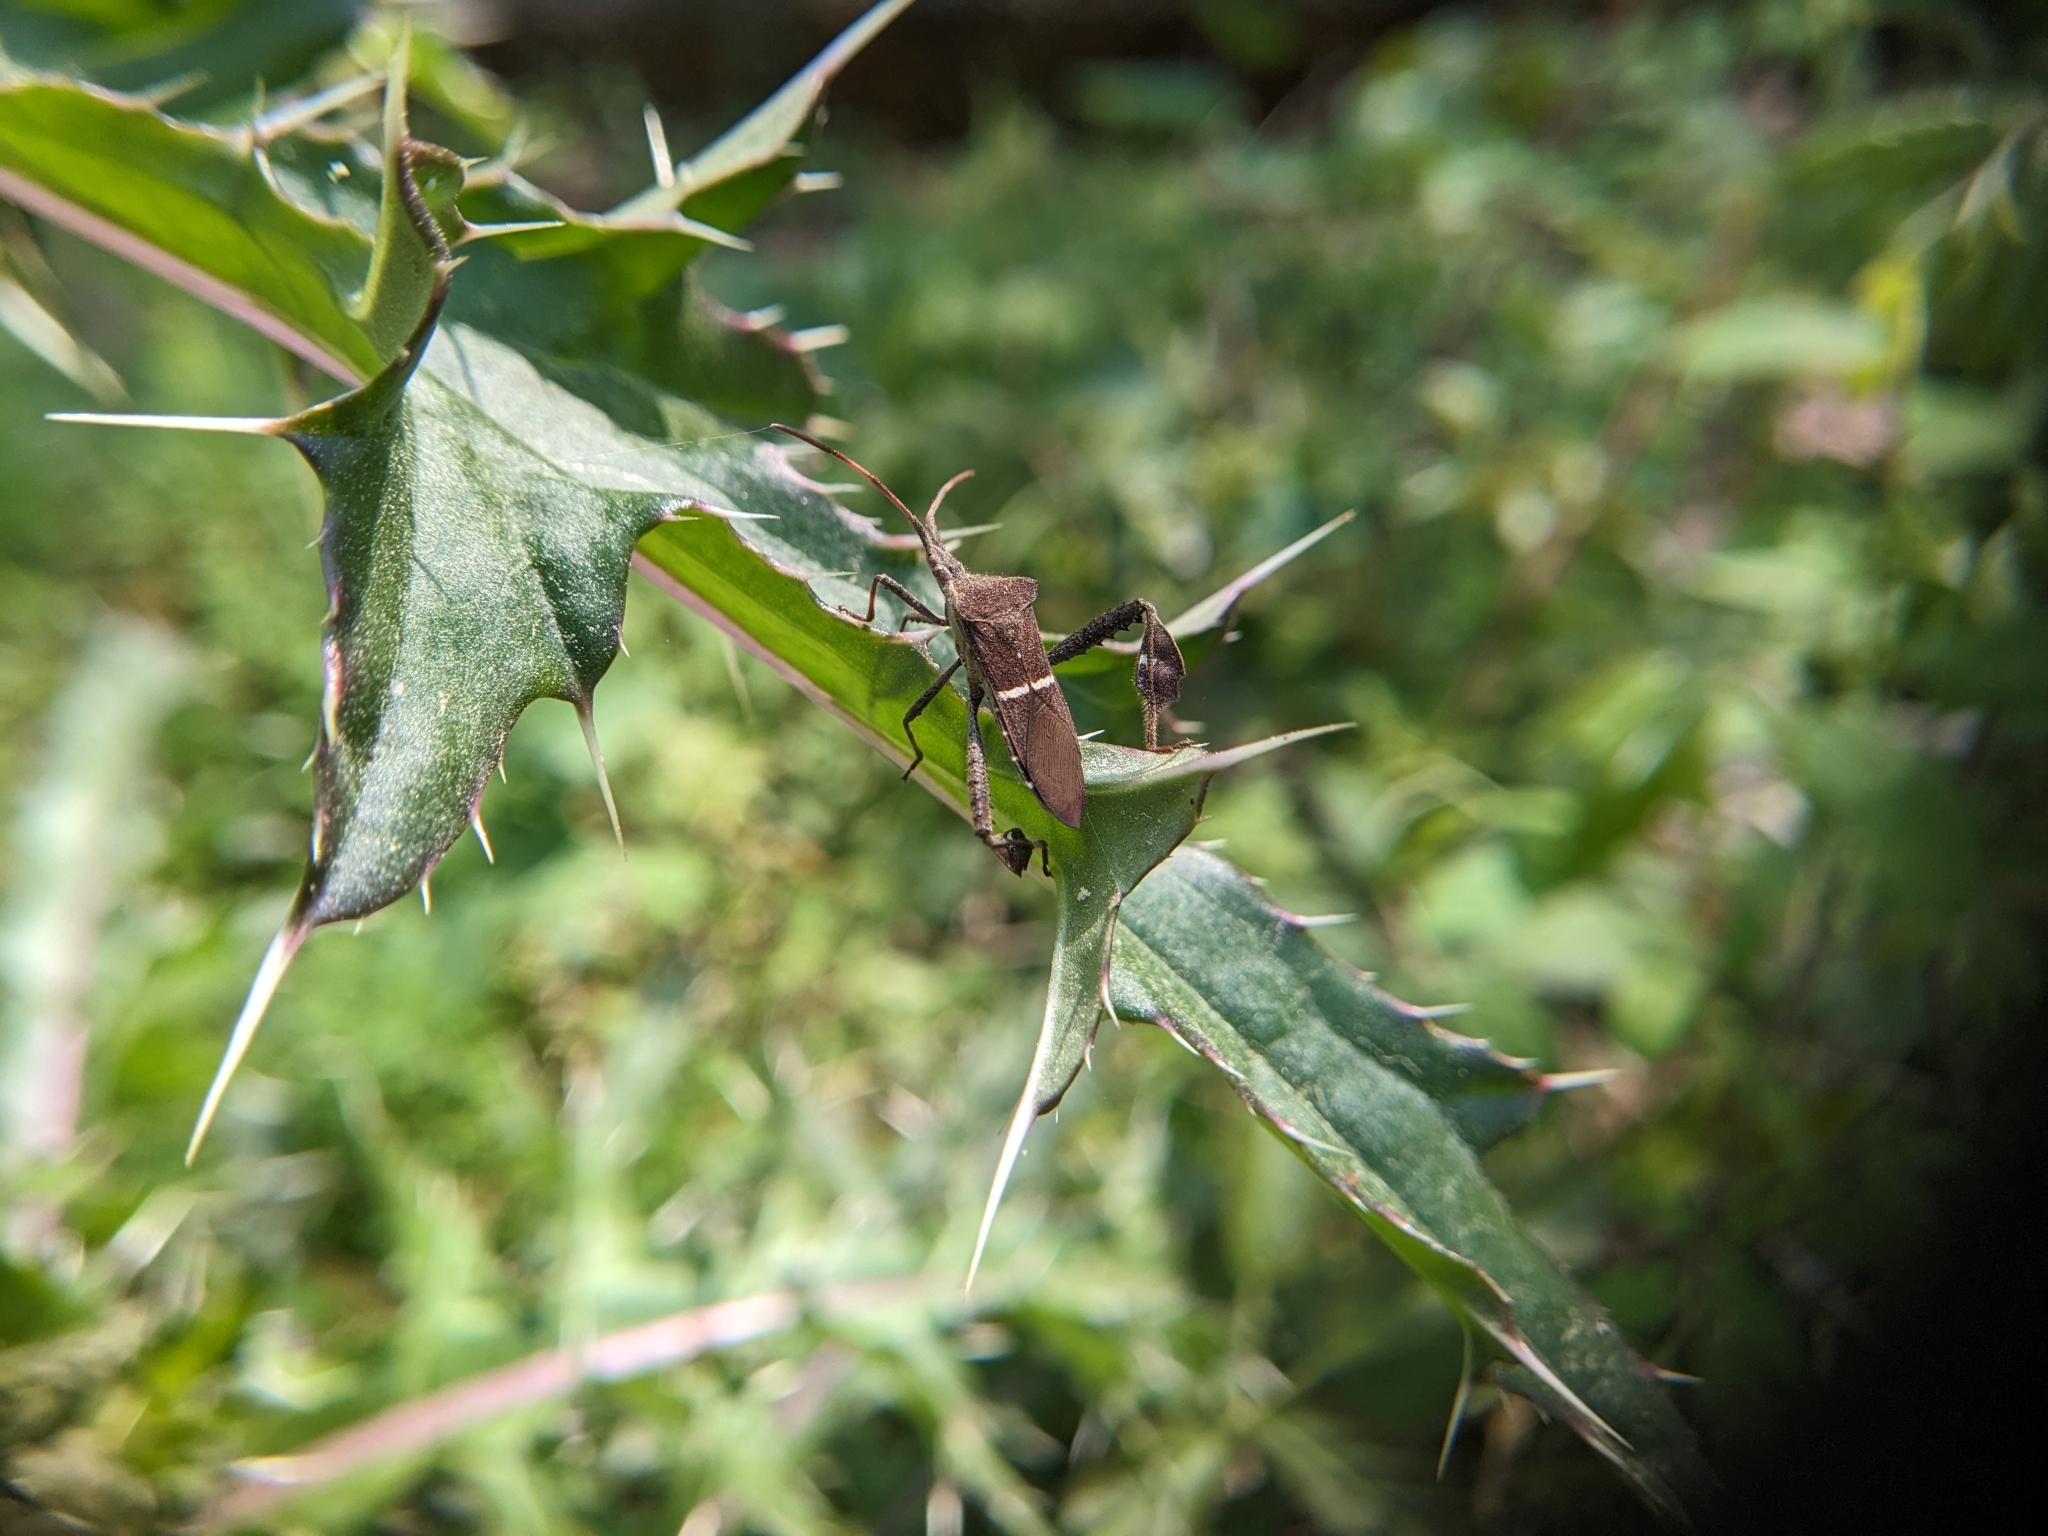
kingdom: Animalia
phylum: Arthropoda
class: Insecta
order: Hemiptera
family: Coreidae
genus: Leptoglossus
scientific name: Leptoglossus phyllopus
